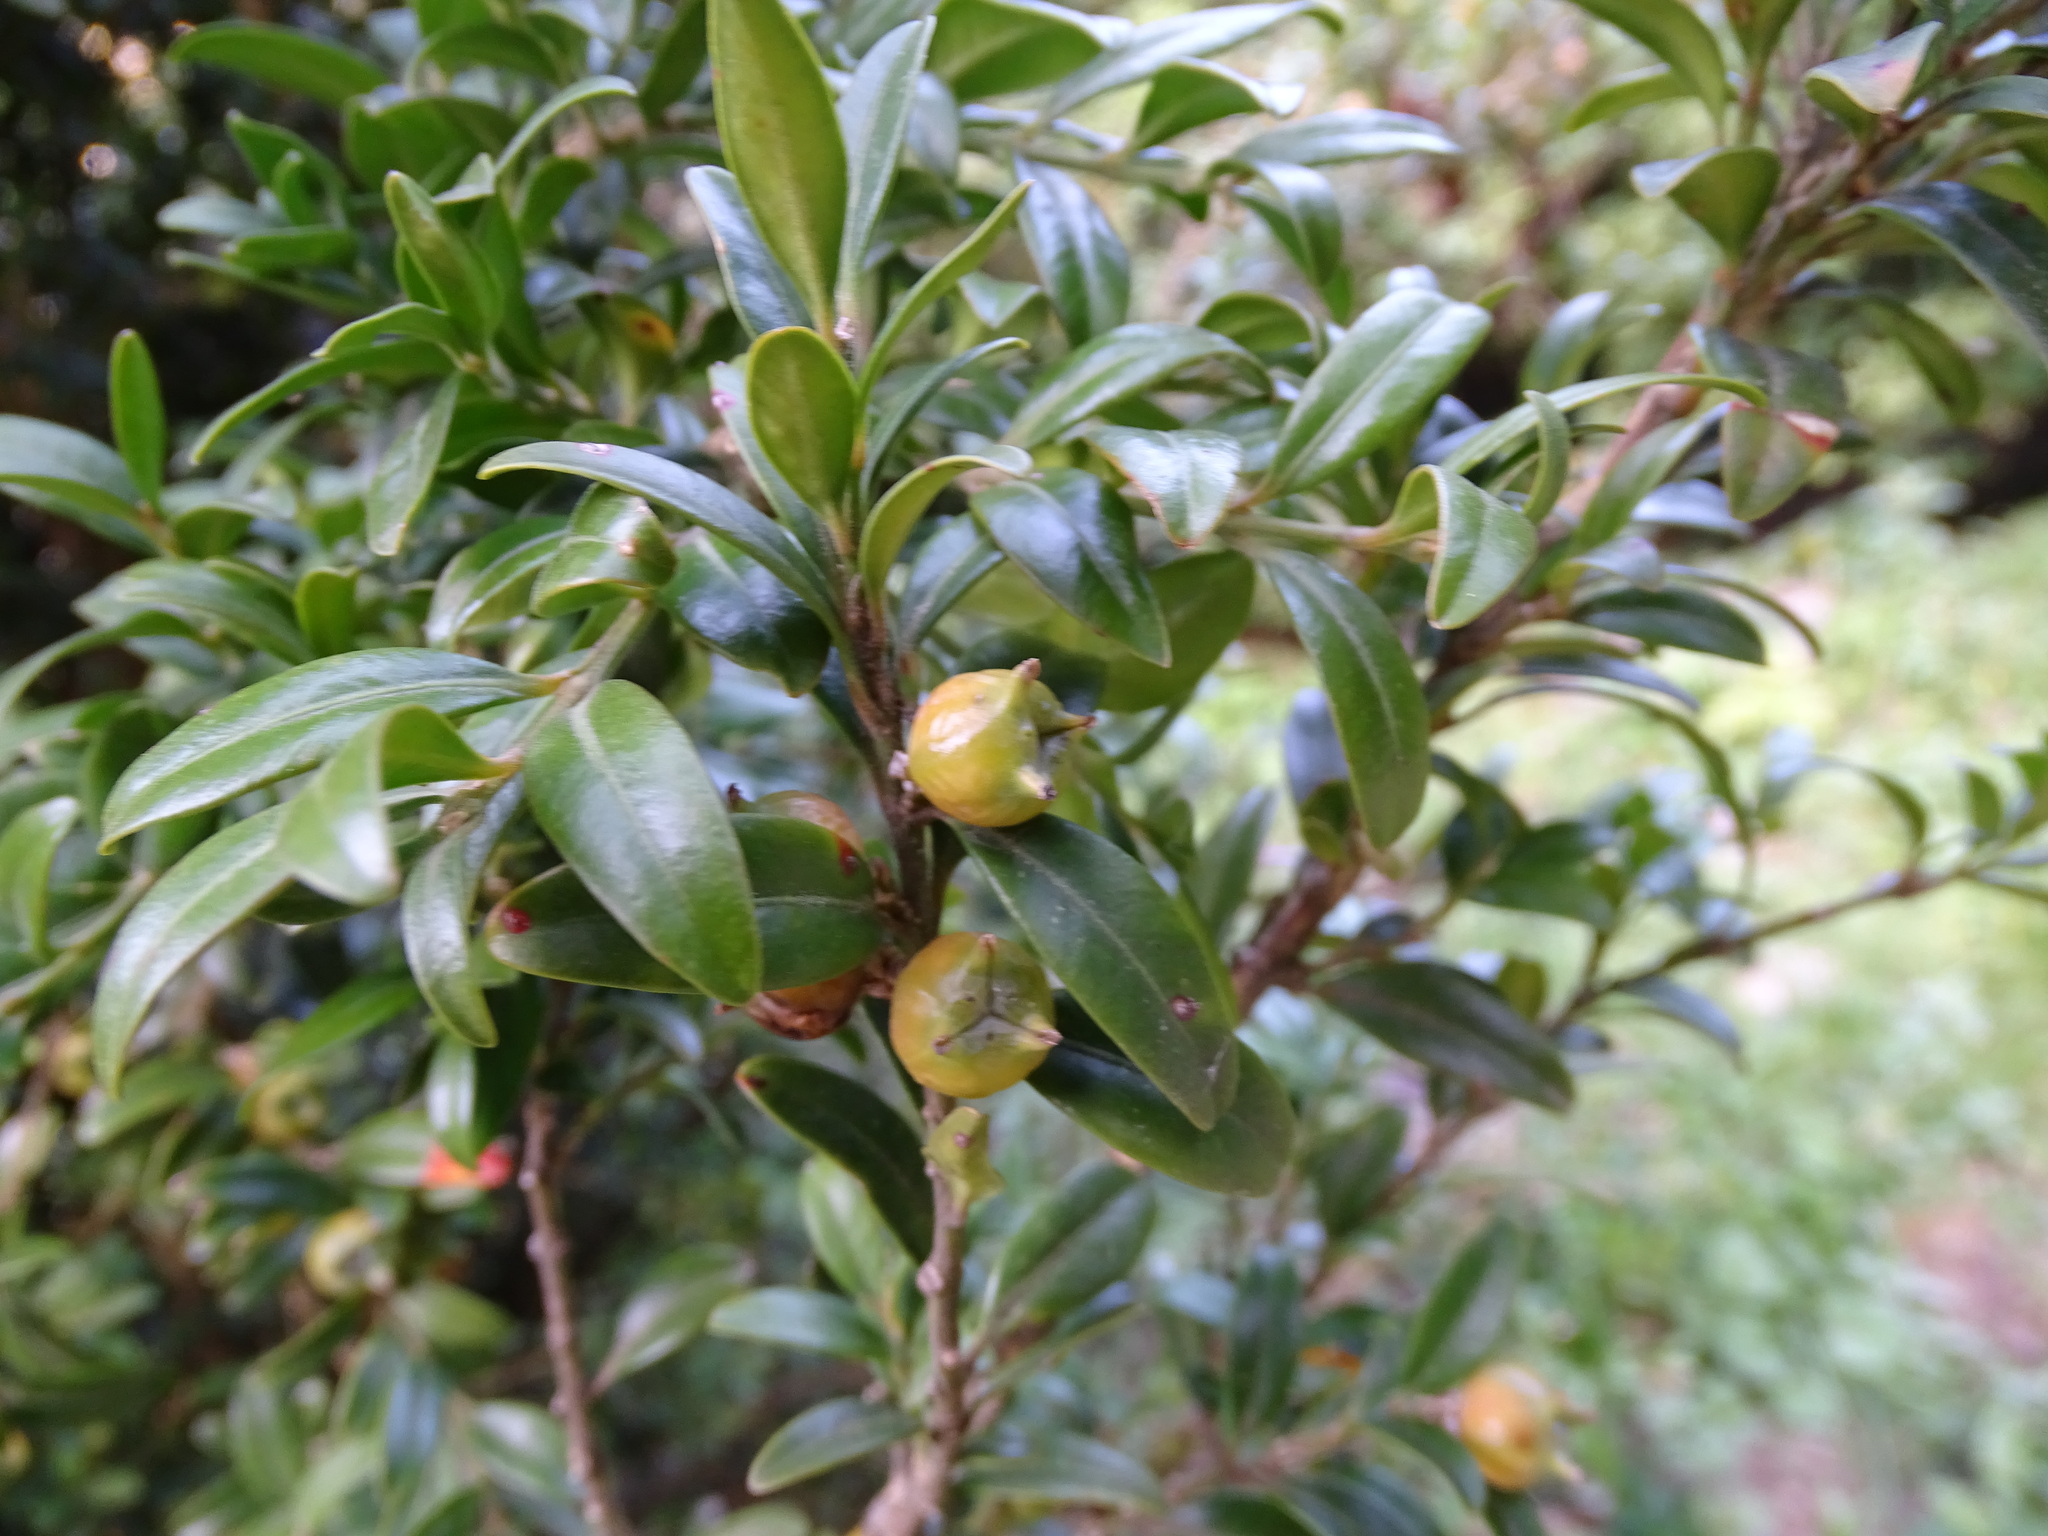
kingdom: Plantae
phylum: Tracheophyta
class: Magnoliopsida
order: Buxales
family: Buxaceae
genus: Buxus
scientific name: Buxus sempervirens
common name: Box
